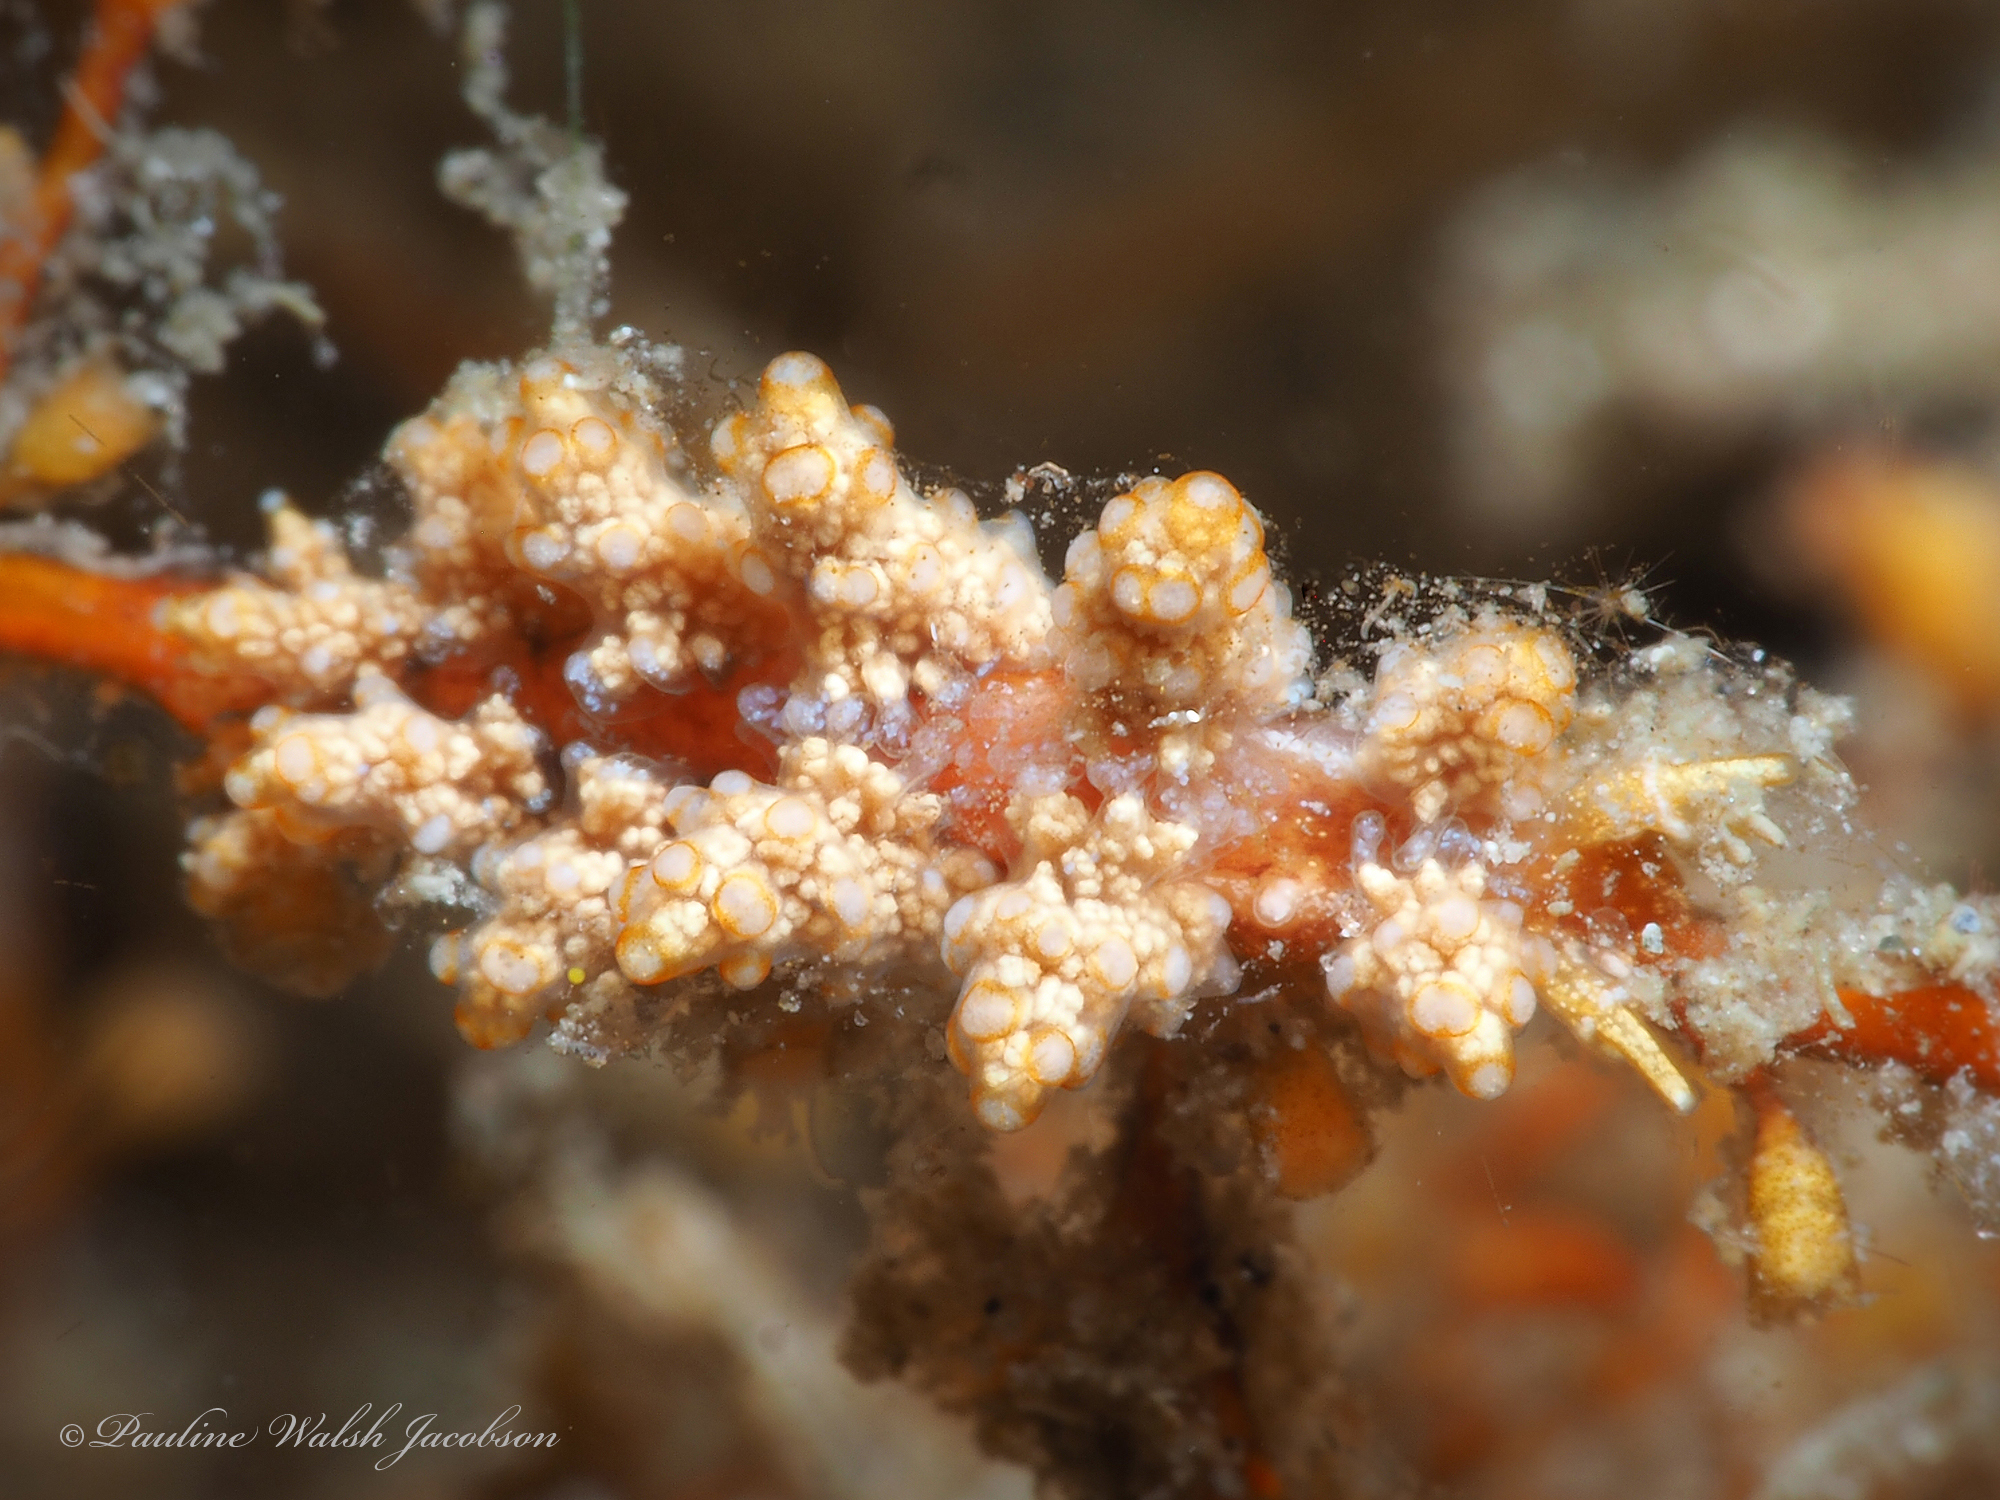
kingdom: Animalia
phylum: Mollusca
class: Gastropoda
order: Nudibranchia
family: Dotidae
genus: Doto
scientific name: Doto torrelavega
